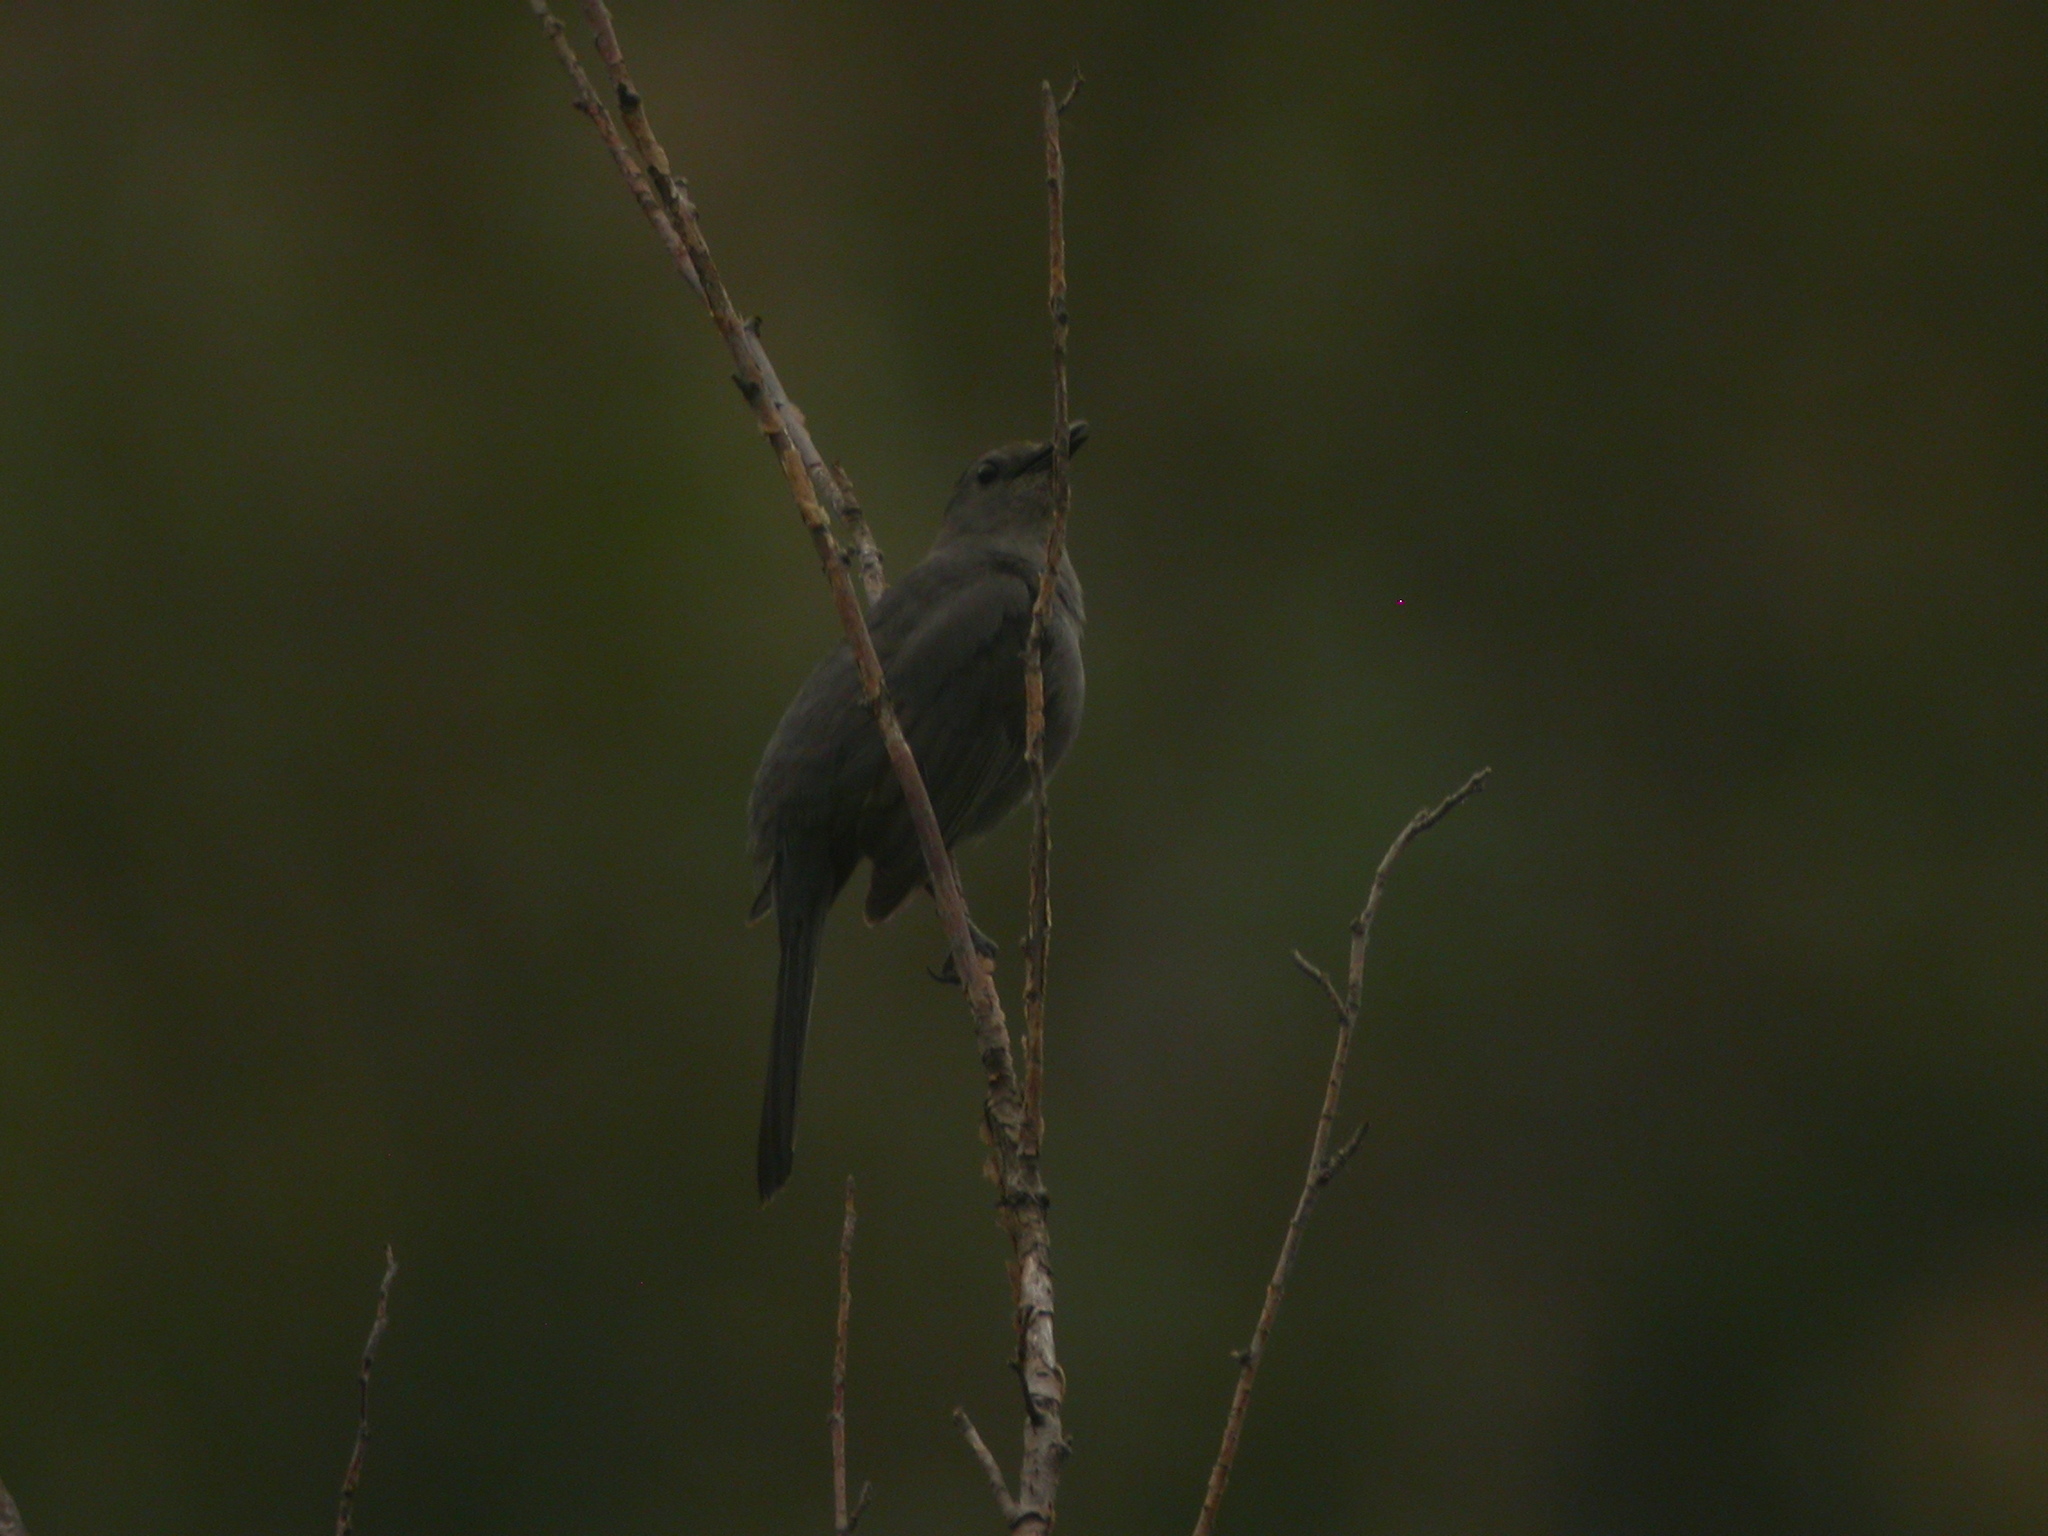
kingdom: Animalia
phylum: Chordata
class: Aves
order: Passeriformes
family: Mimidae
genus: Dumetella
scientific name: Dumetella carolinensis
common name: Gray catbird
